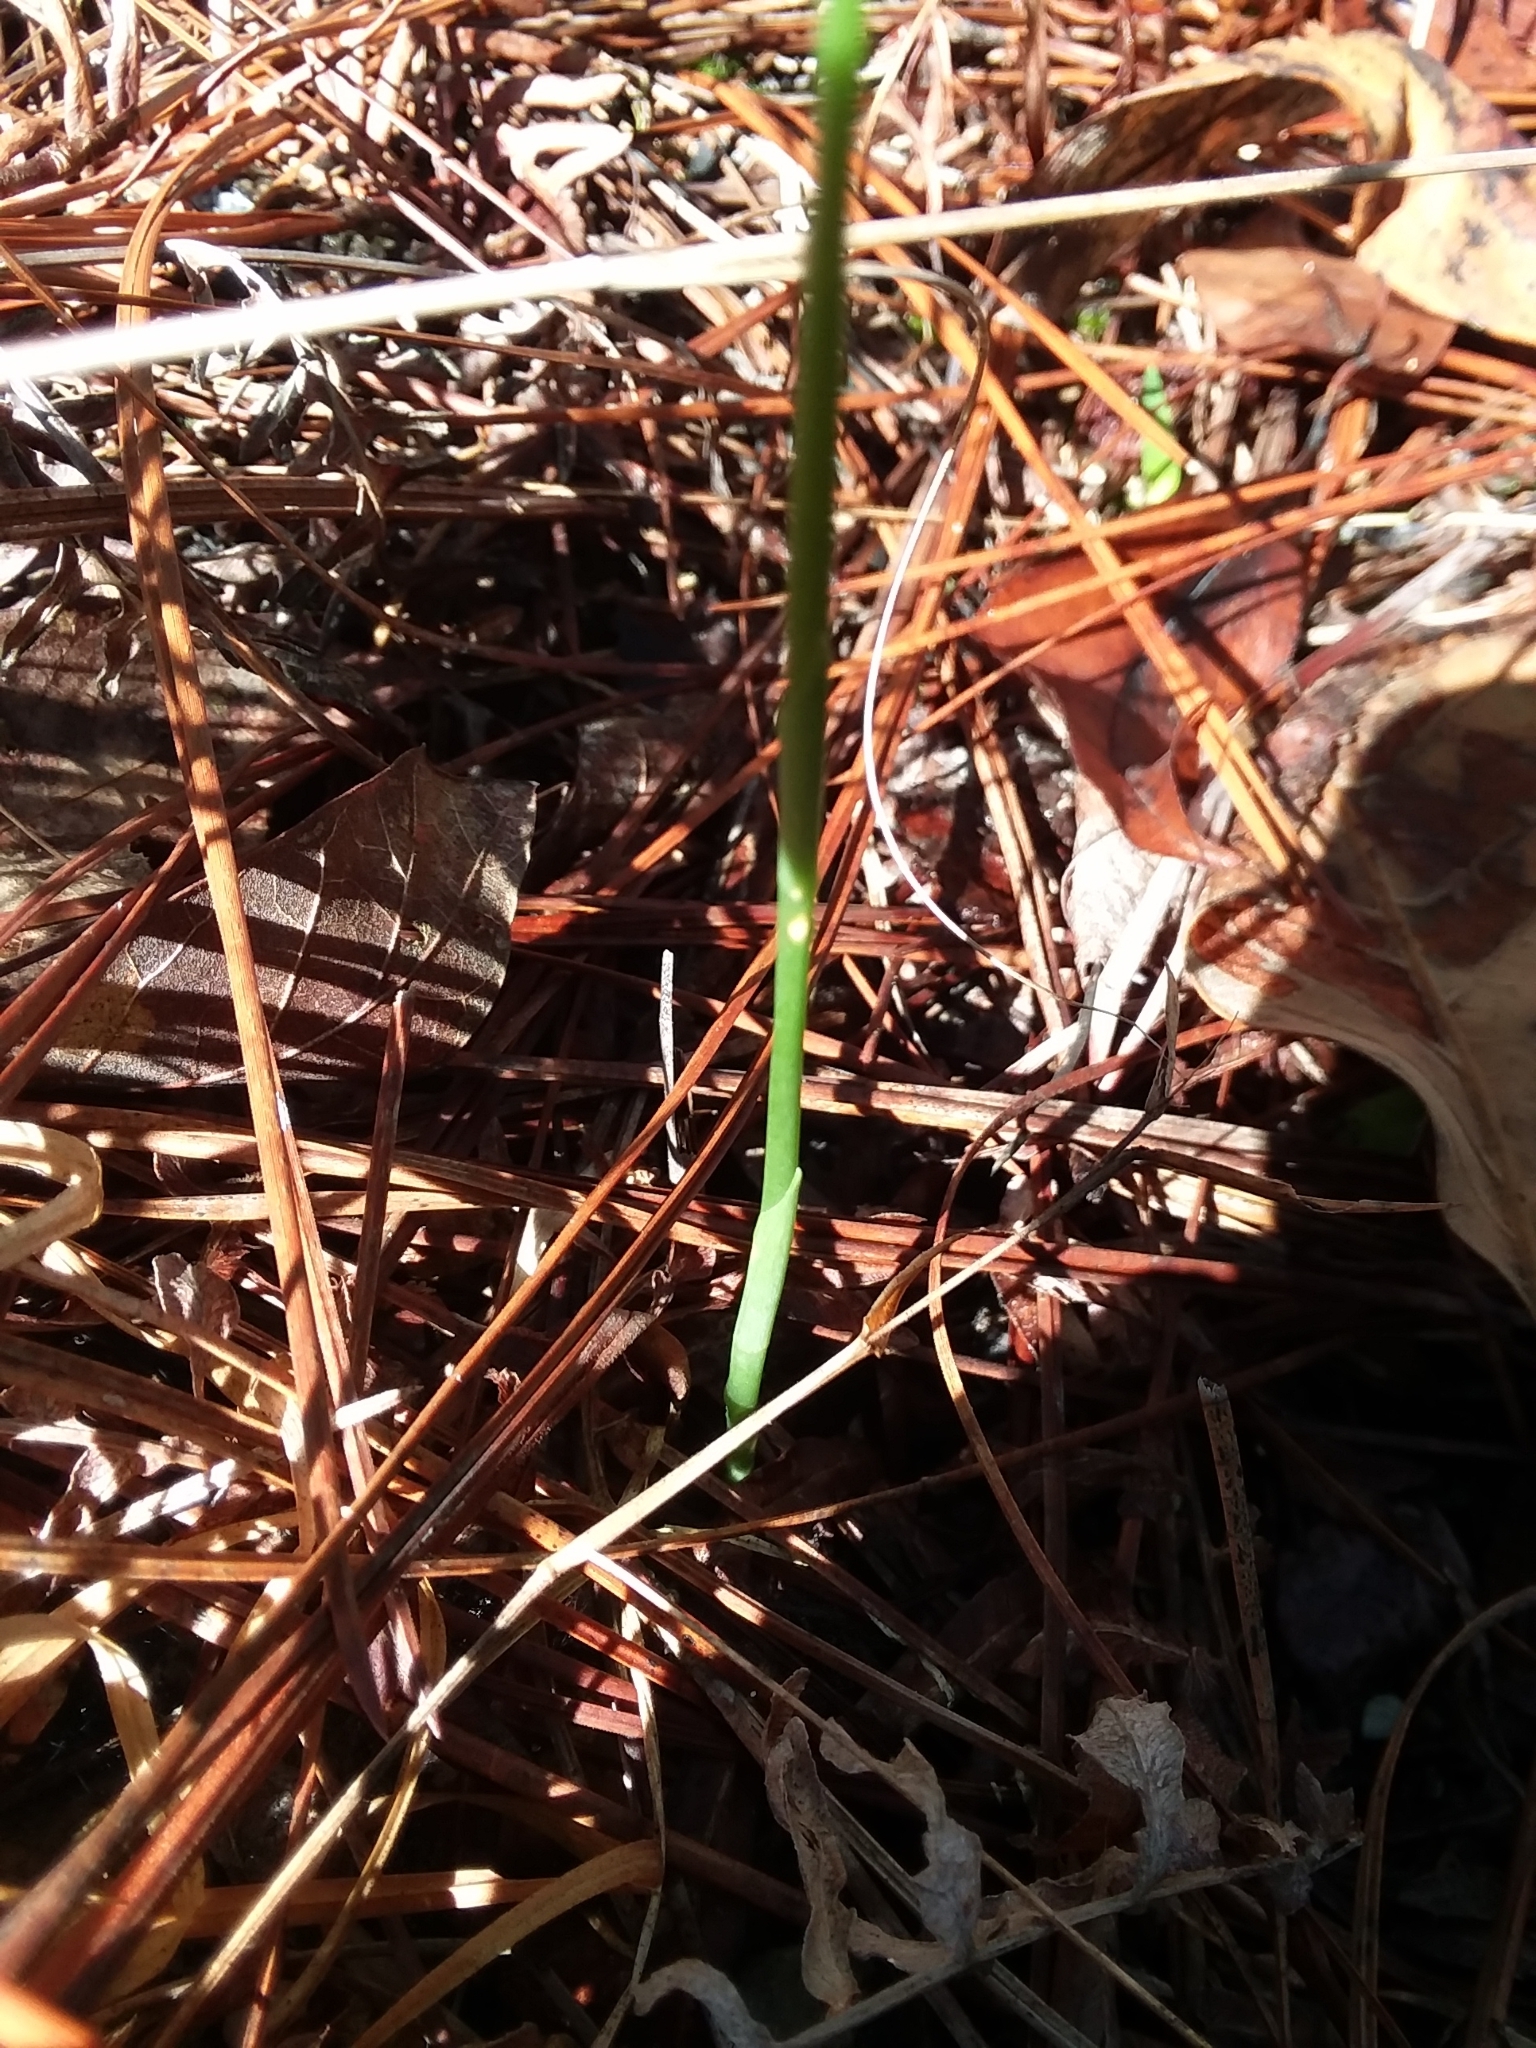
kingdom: Plantae
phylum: Tracheophyta
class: Liliopsida
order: Asparagales
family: Orchidaceae
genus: Spiranthes
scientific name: Spiranthes tuberosa
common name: Little ladies'-tresses
